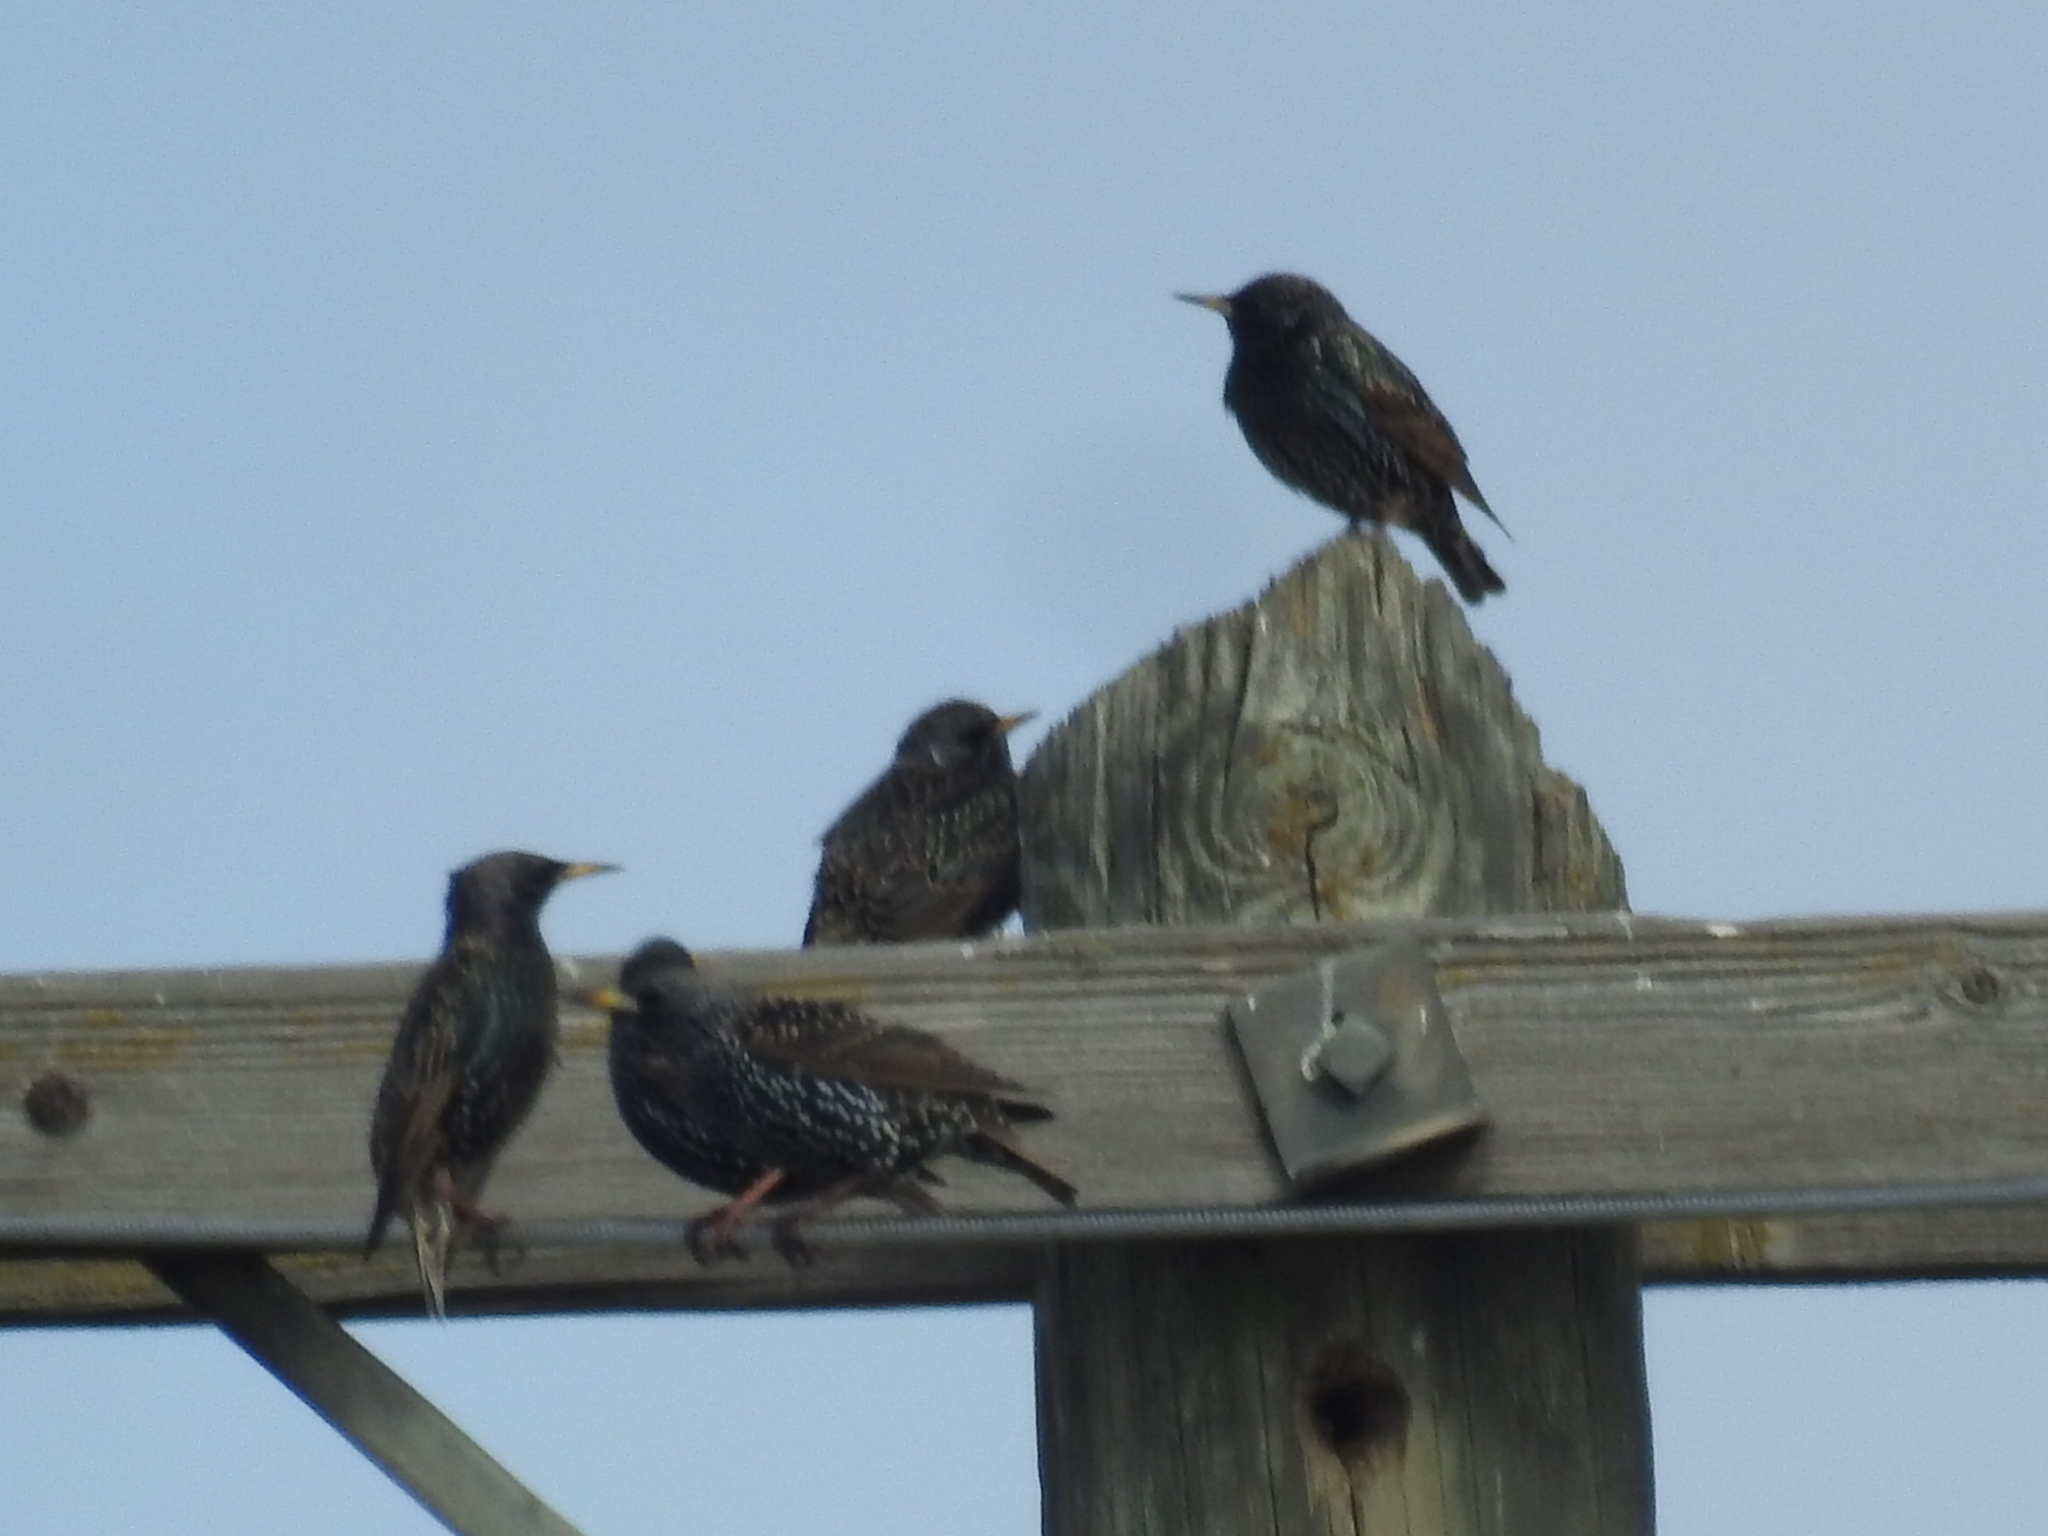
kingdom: Animalia
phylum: Chordata
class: Aves
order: Passeriformes
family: Sturnidae
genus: Sturnus
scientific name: Sturnus vulgaris
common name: Common starling
